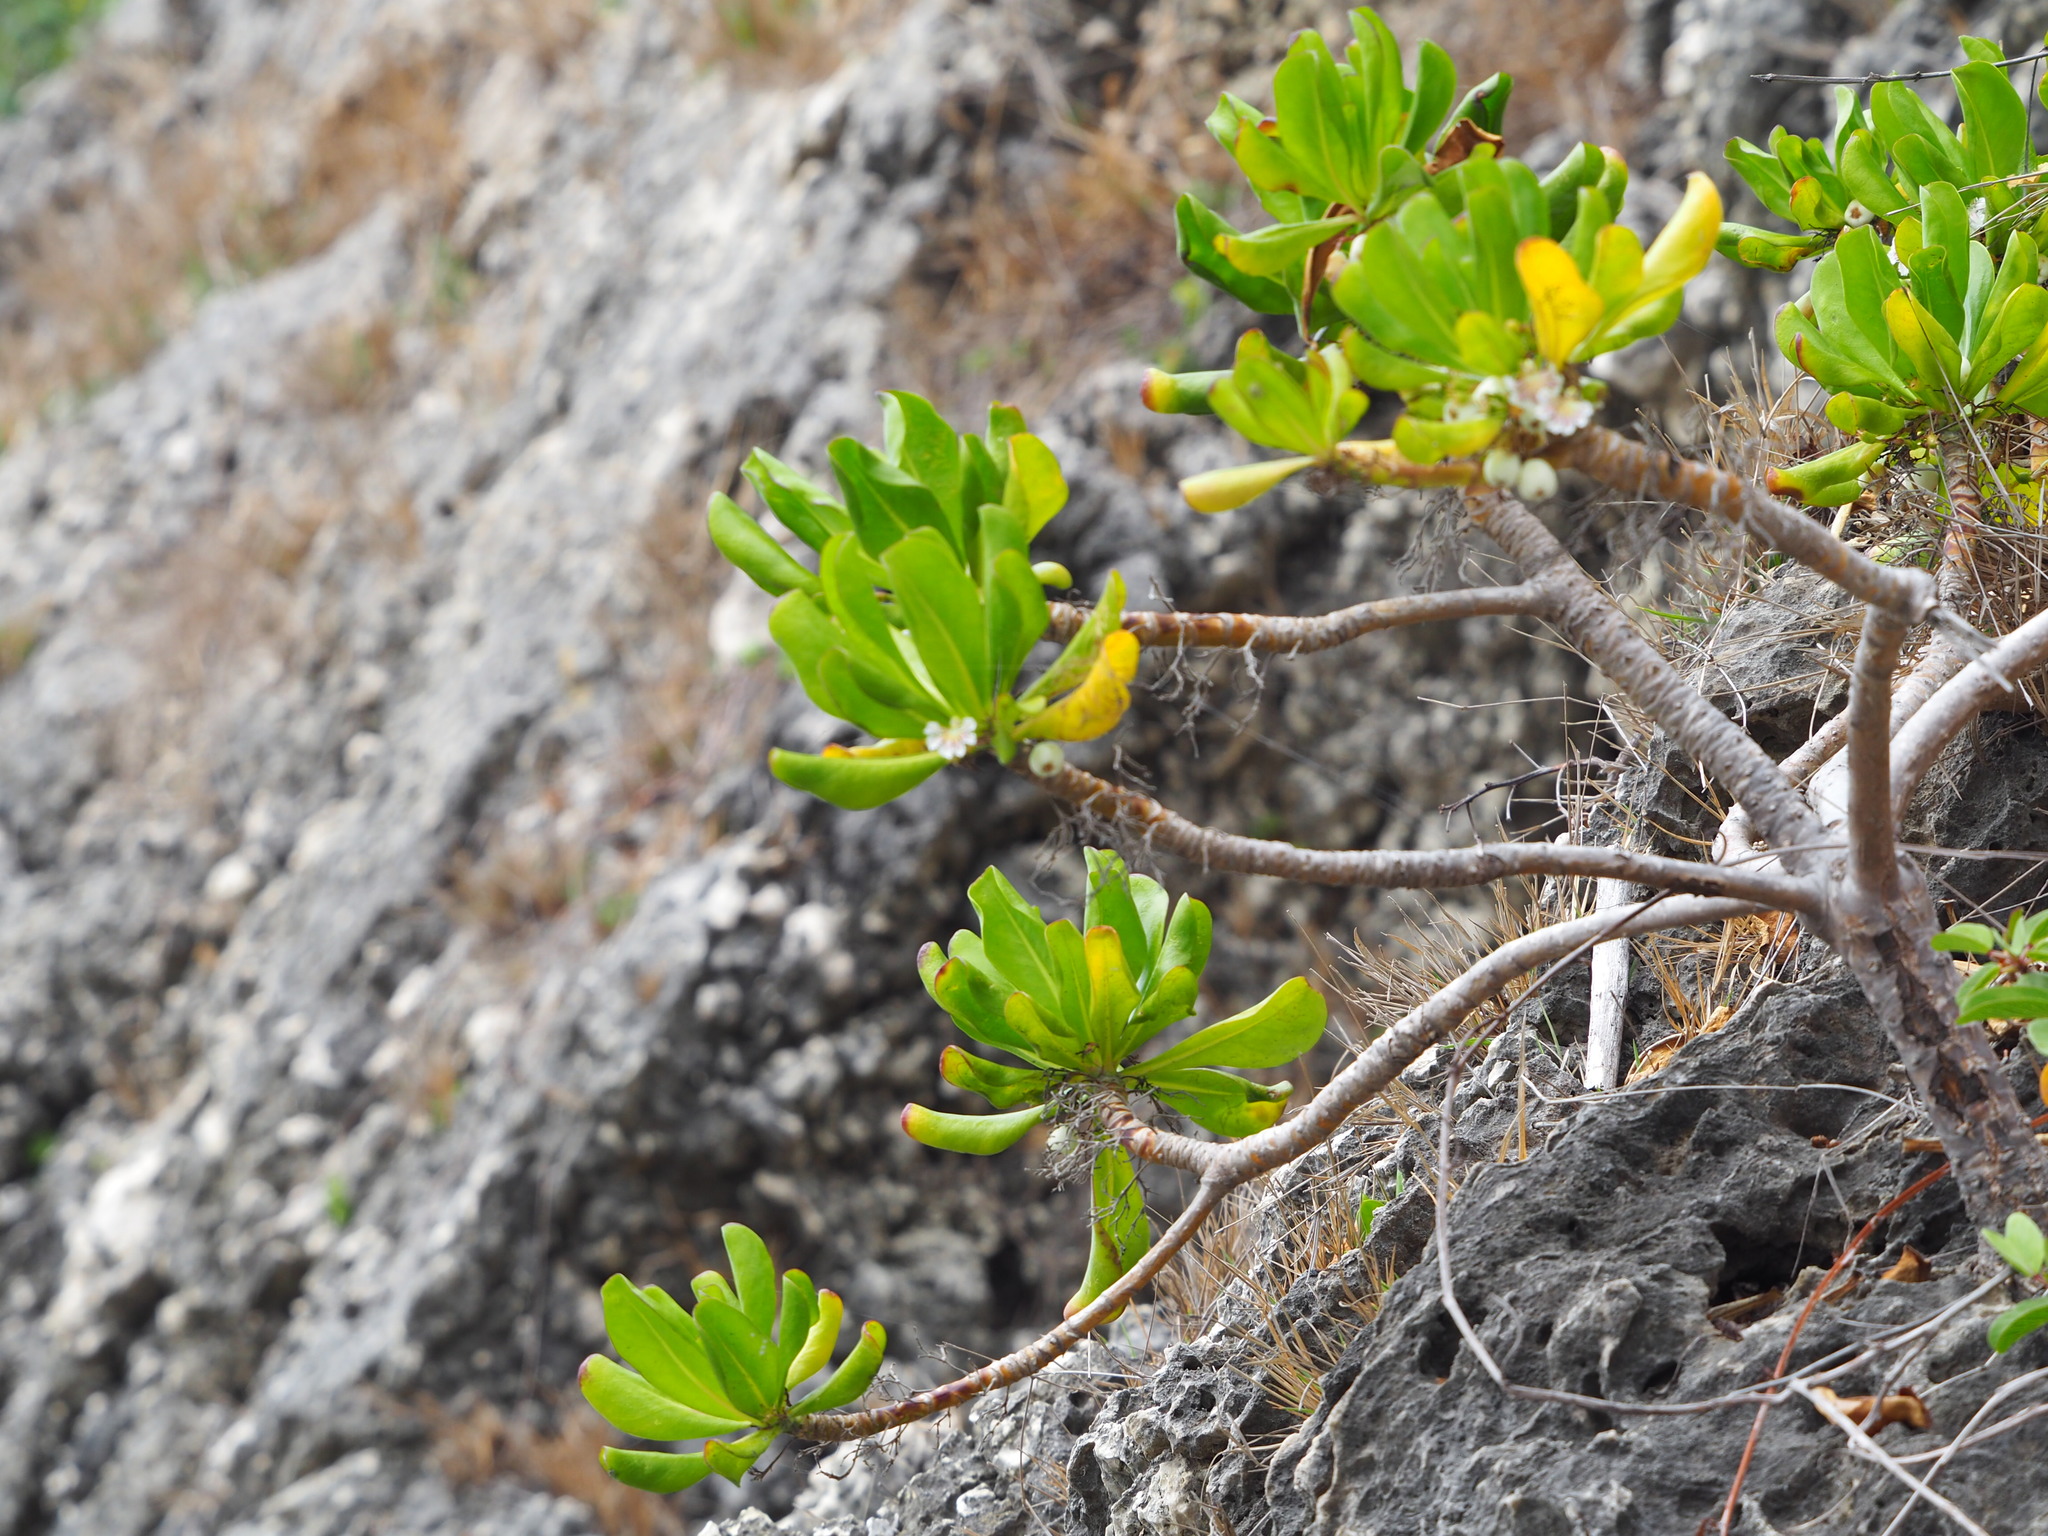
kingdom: Plantae
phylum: Tracheophyta
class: Magnoliopsida
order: Asterales
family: Goodeniaceae
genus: Scaevola
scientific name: Scaevola taccada
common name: Sea lettucetree
